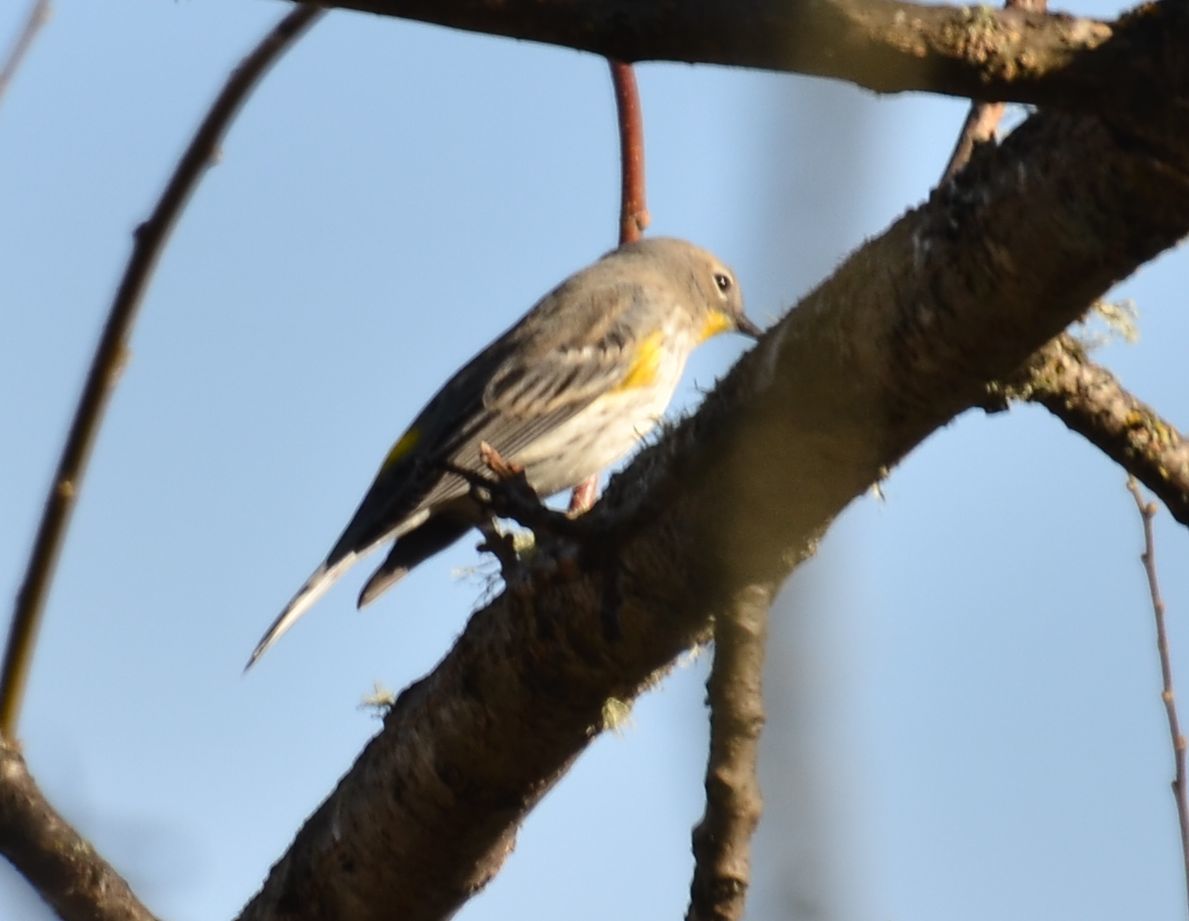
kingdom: Animalia
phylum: Chordata
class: Aves
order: Passeriformes
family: Parulidae
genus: Setophaga
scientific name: Setophaga coronata
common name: Myrtle warbler
